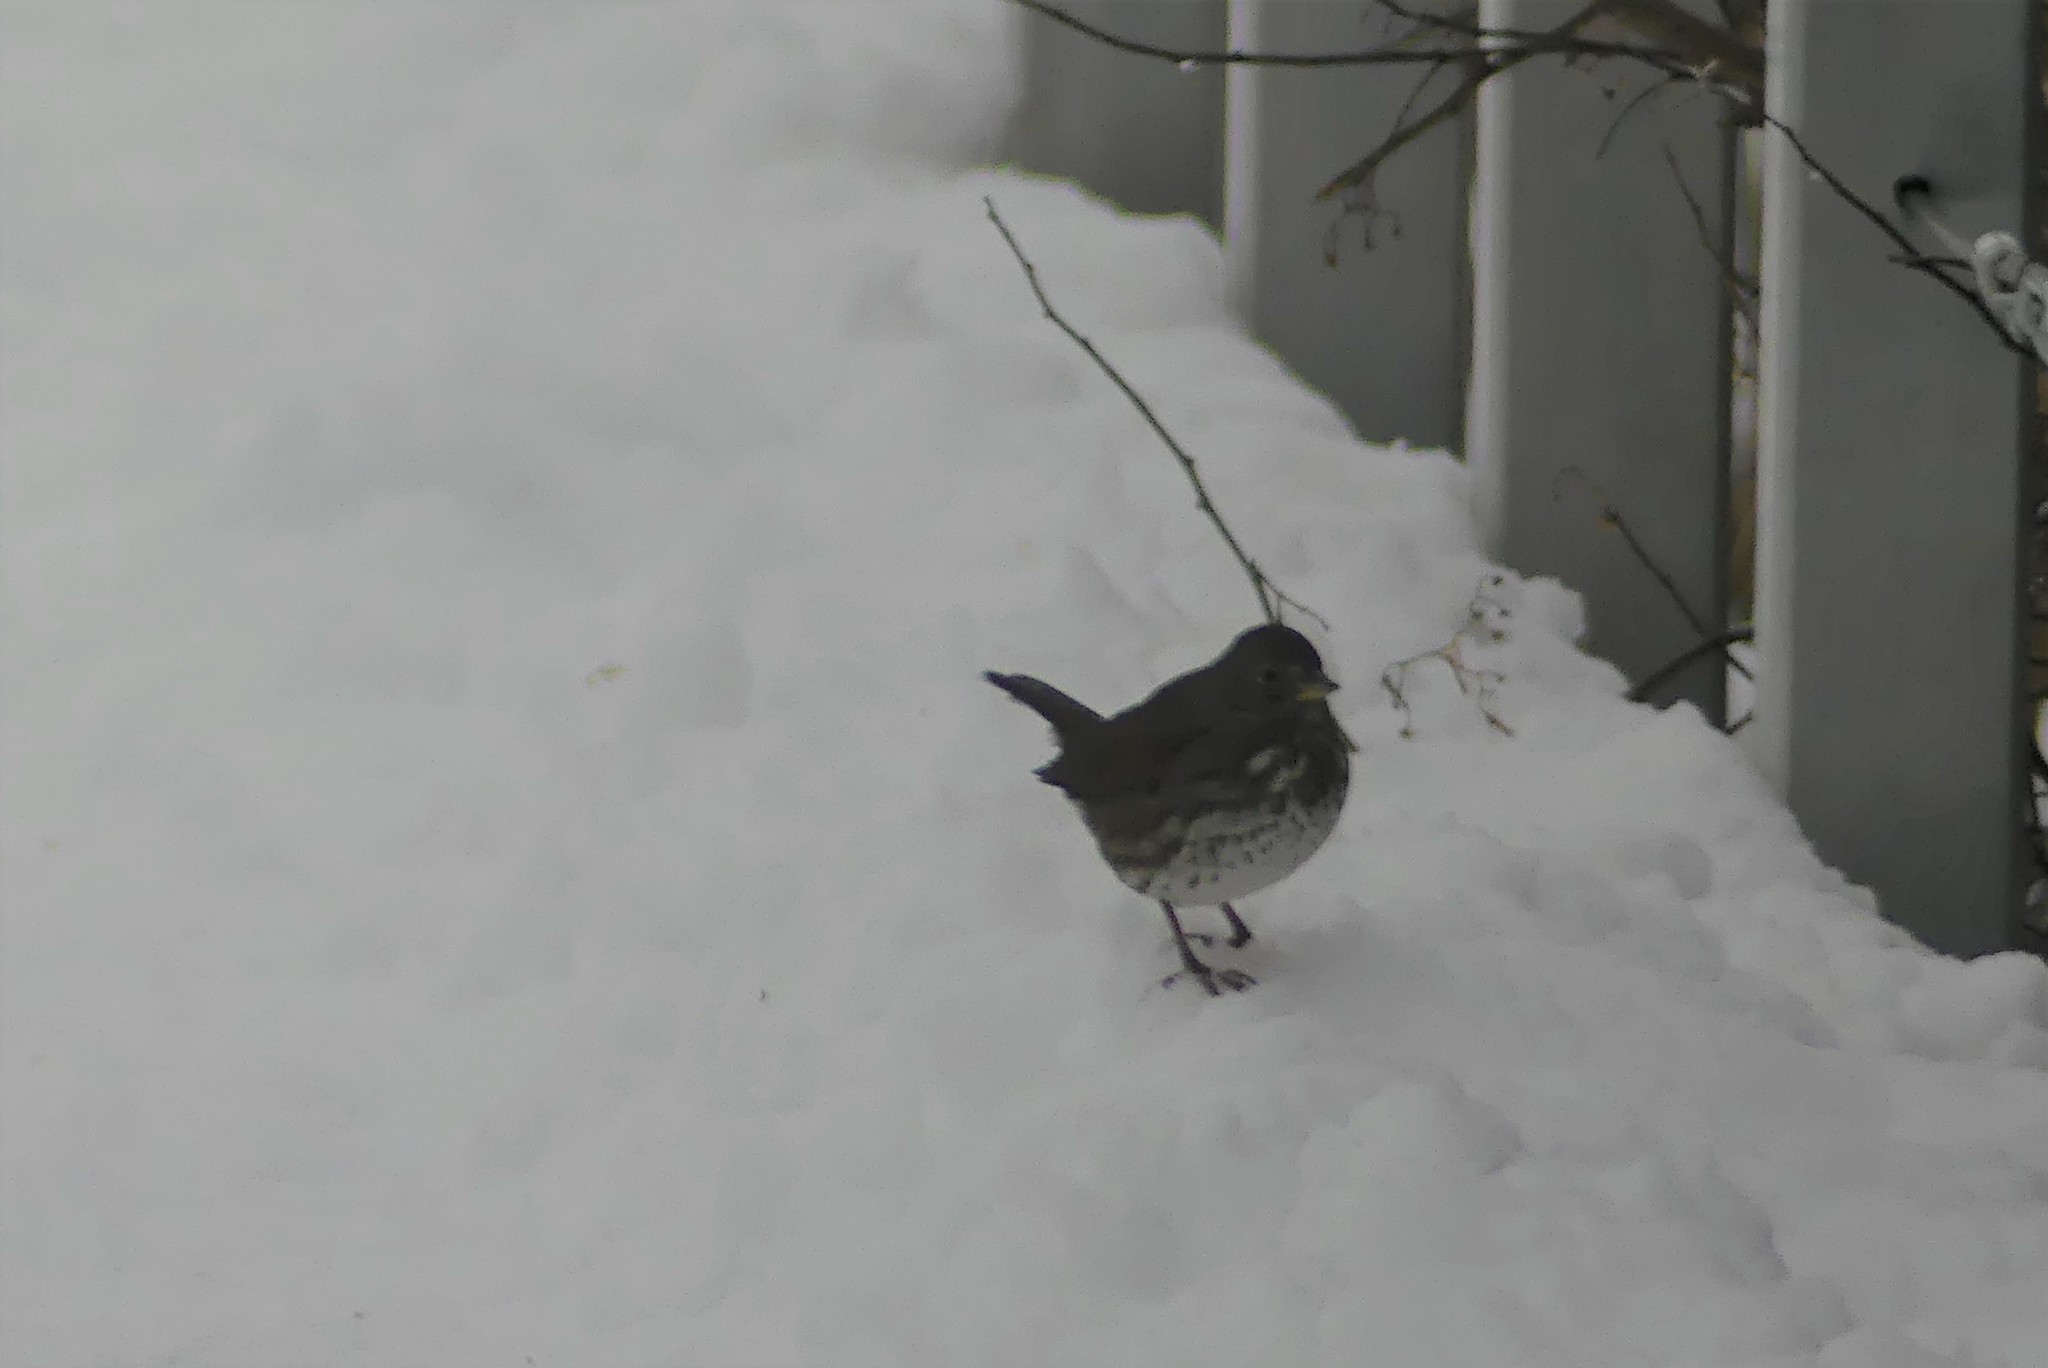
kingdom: Animalia
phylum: Chordata
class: Aves
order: Passeriformes
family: Passerellidae
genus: Passerella
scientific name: Passerella iliaca
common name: Fox sparrow
